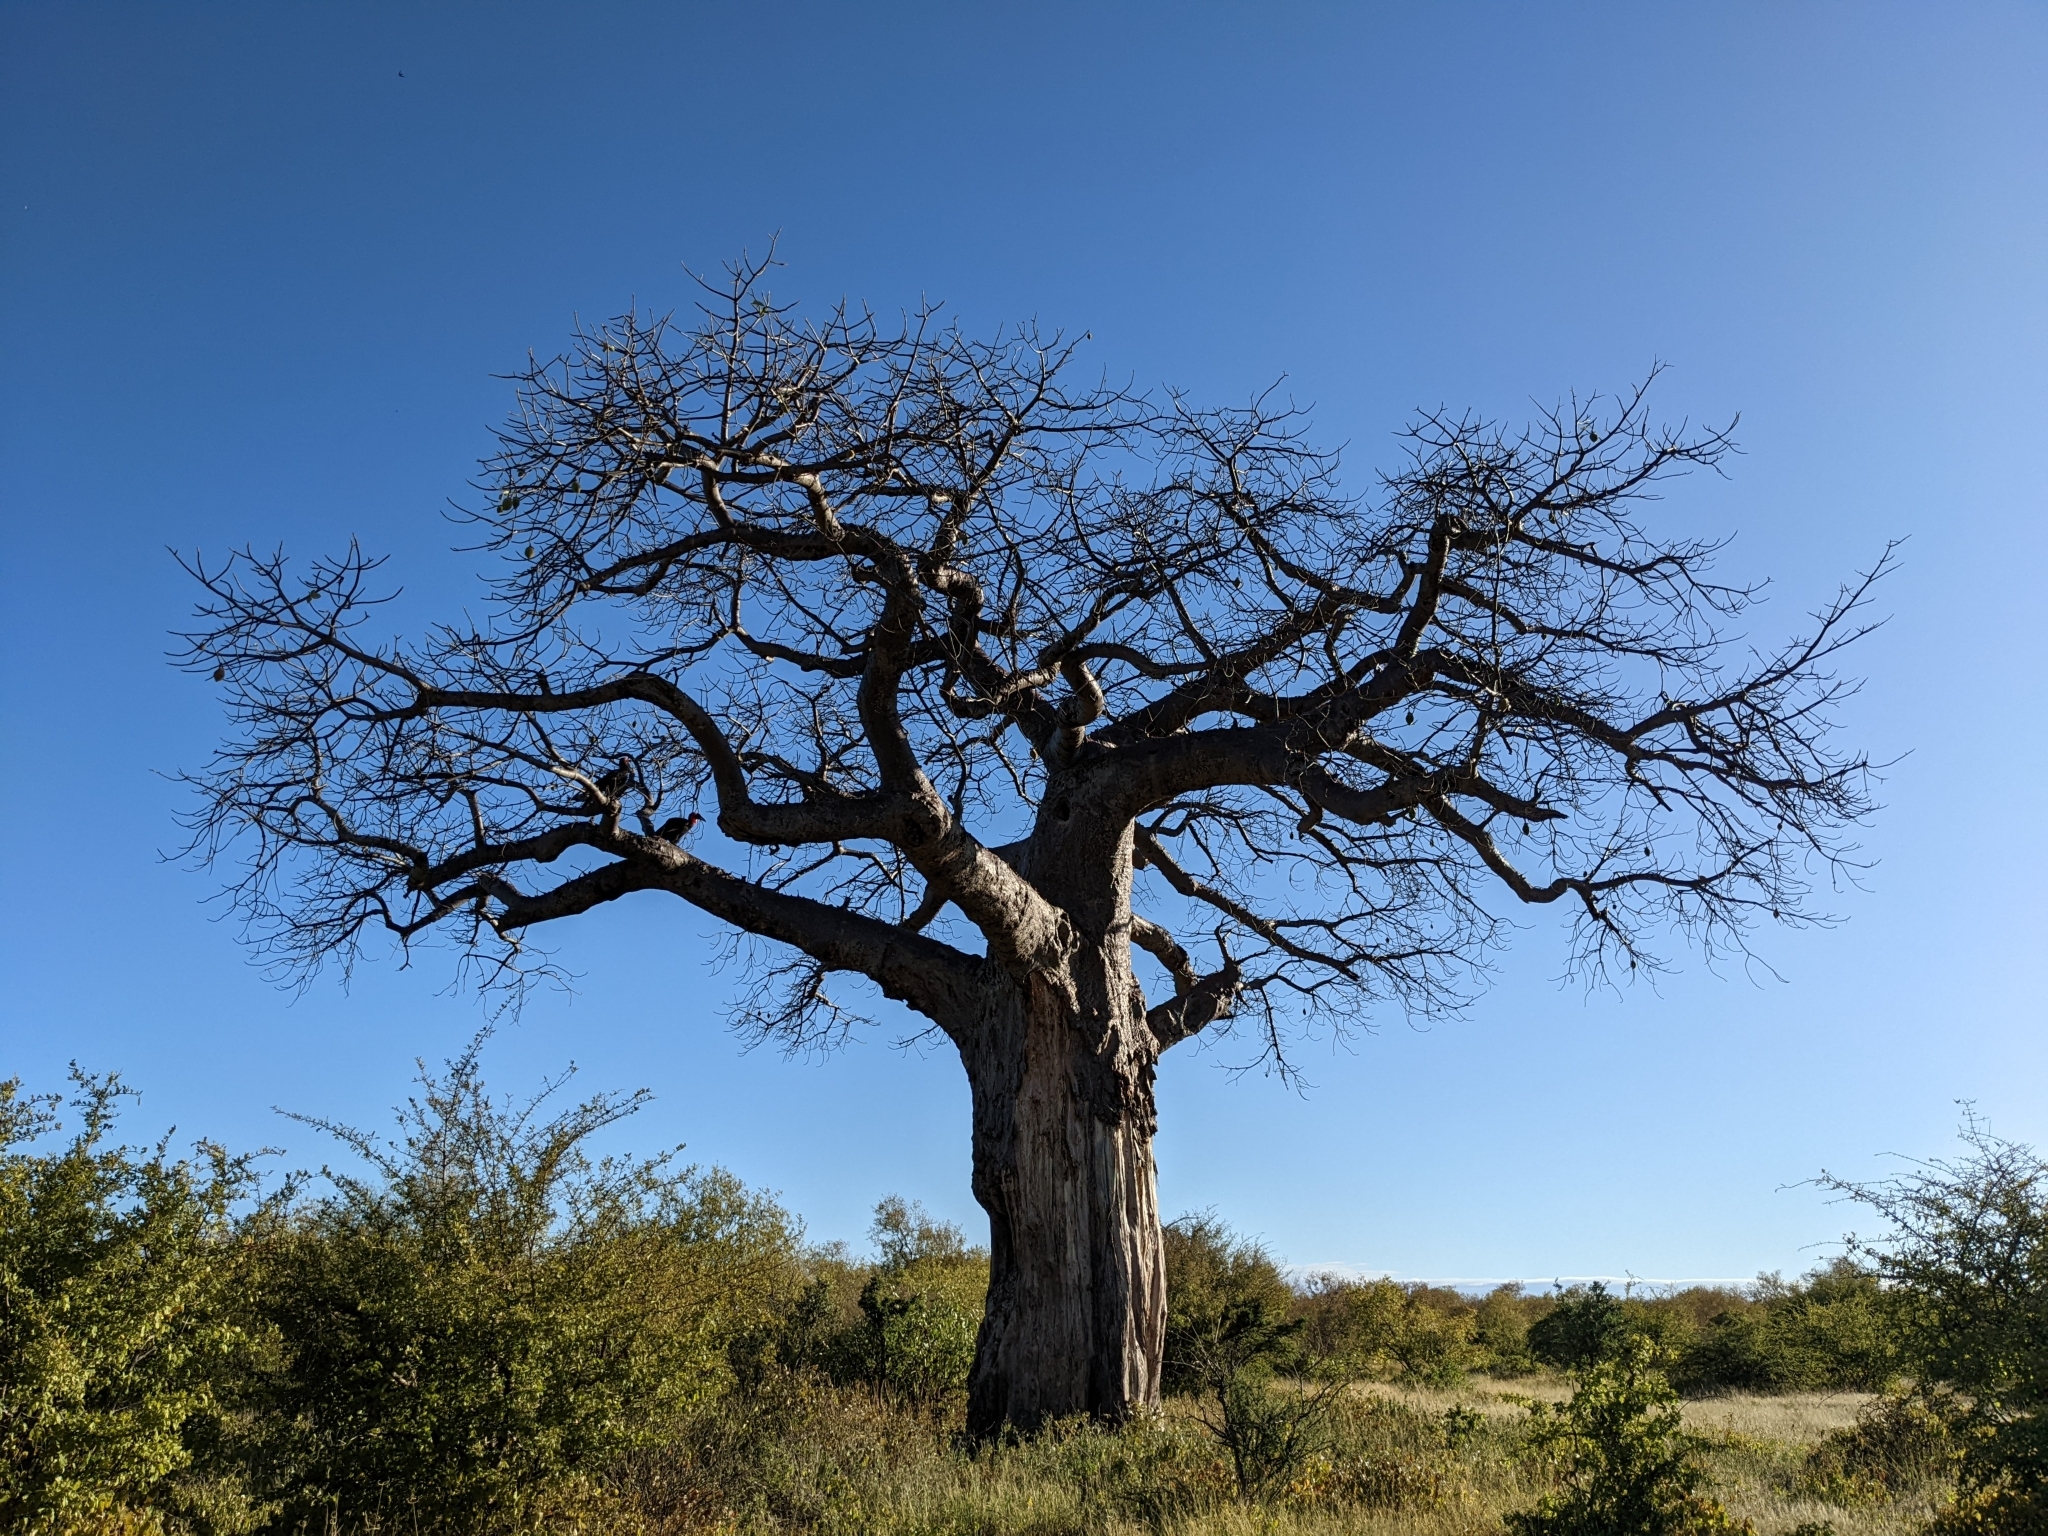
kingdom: Plantae
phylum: Tracheophyta
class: Magnoliopsida
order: Malvales
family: Malvaceae
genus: Adansonia
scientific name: Adansonia digitata
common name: Dead-rat-tree
